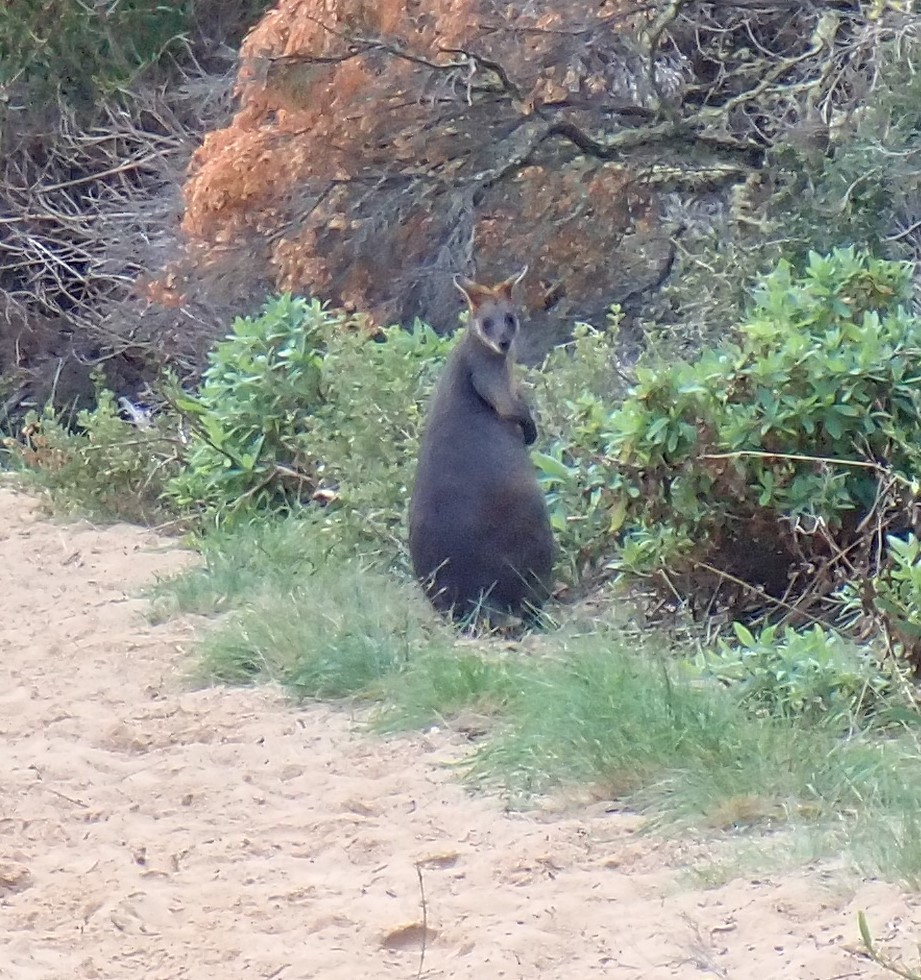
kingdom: Animalia
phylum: Chordata
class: Mammalia
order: Diprotodontia
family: Macropodidae
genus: Wallabia
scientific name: Wallabia bicolor
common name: Swamp wallaby
